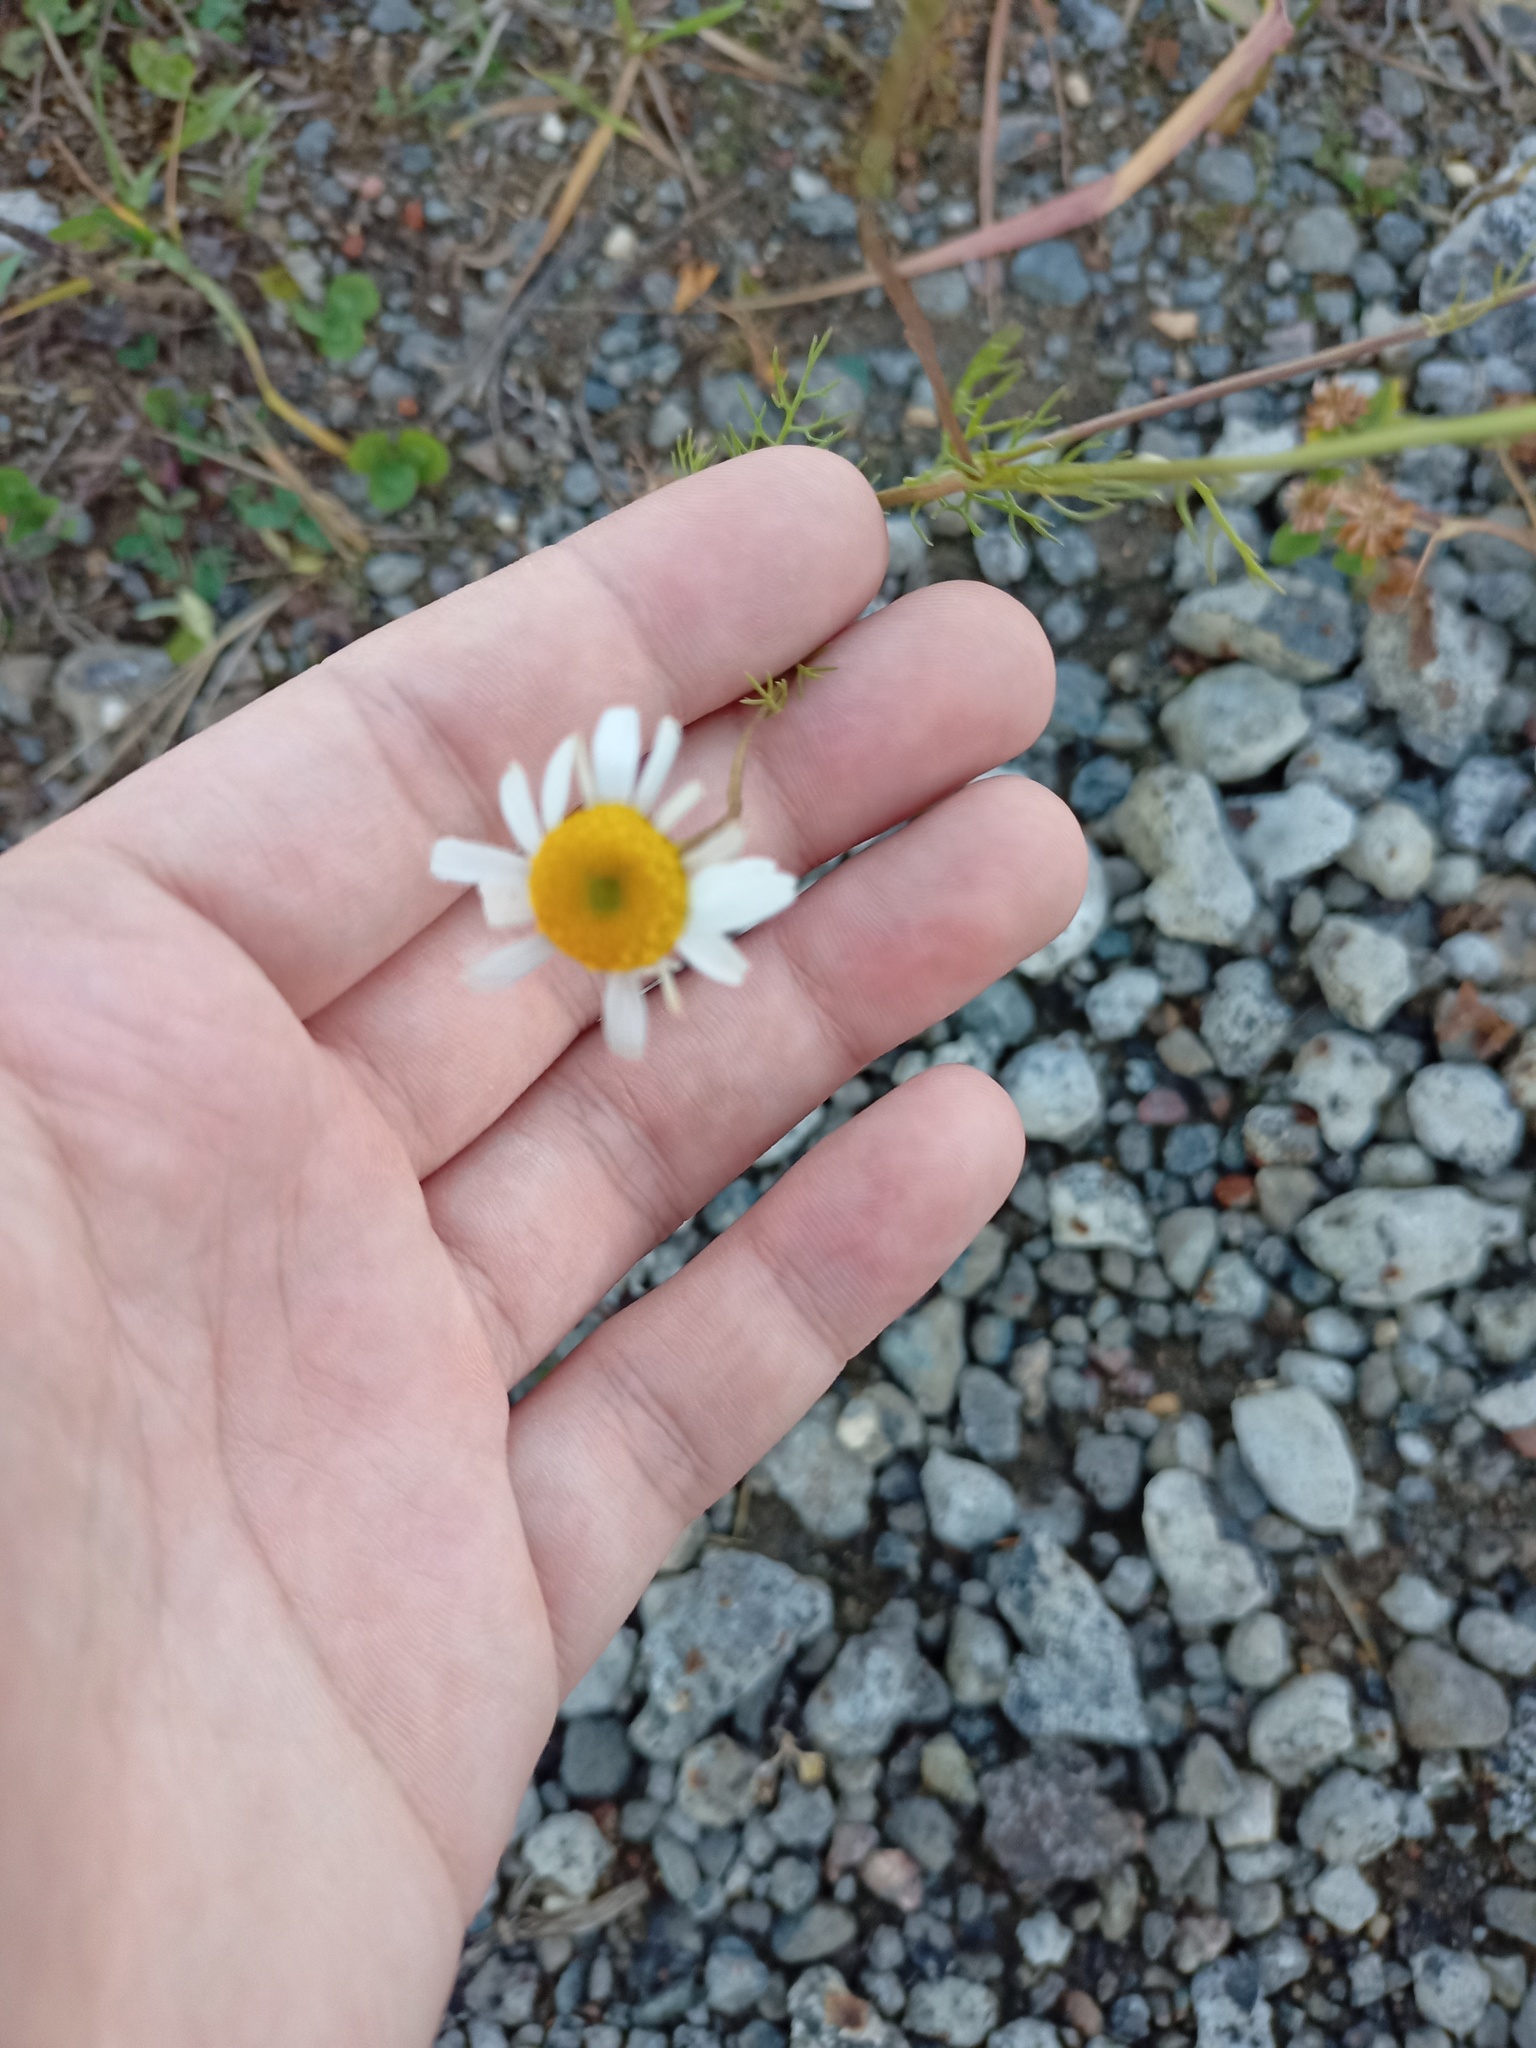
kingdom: Plantae
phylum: Tracheophyta
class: Magnoliopsida
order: Asterales
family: Asteraceae
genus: Tripleurospermum
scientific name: Tripleurospermum inodorum
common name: Scentless mayweed
